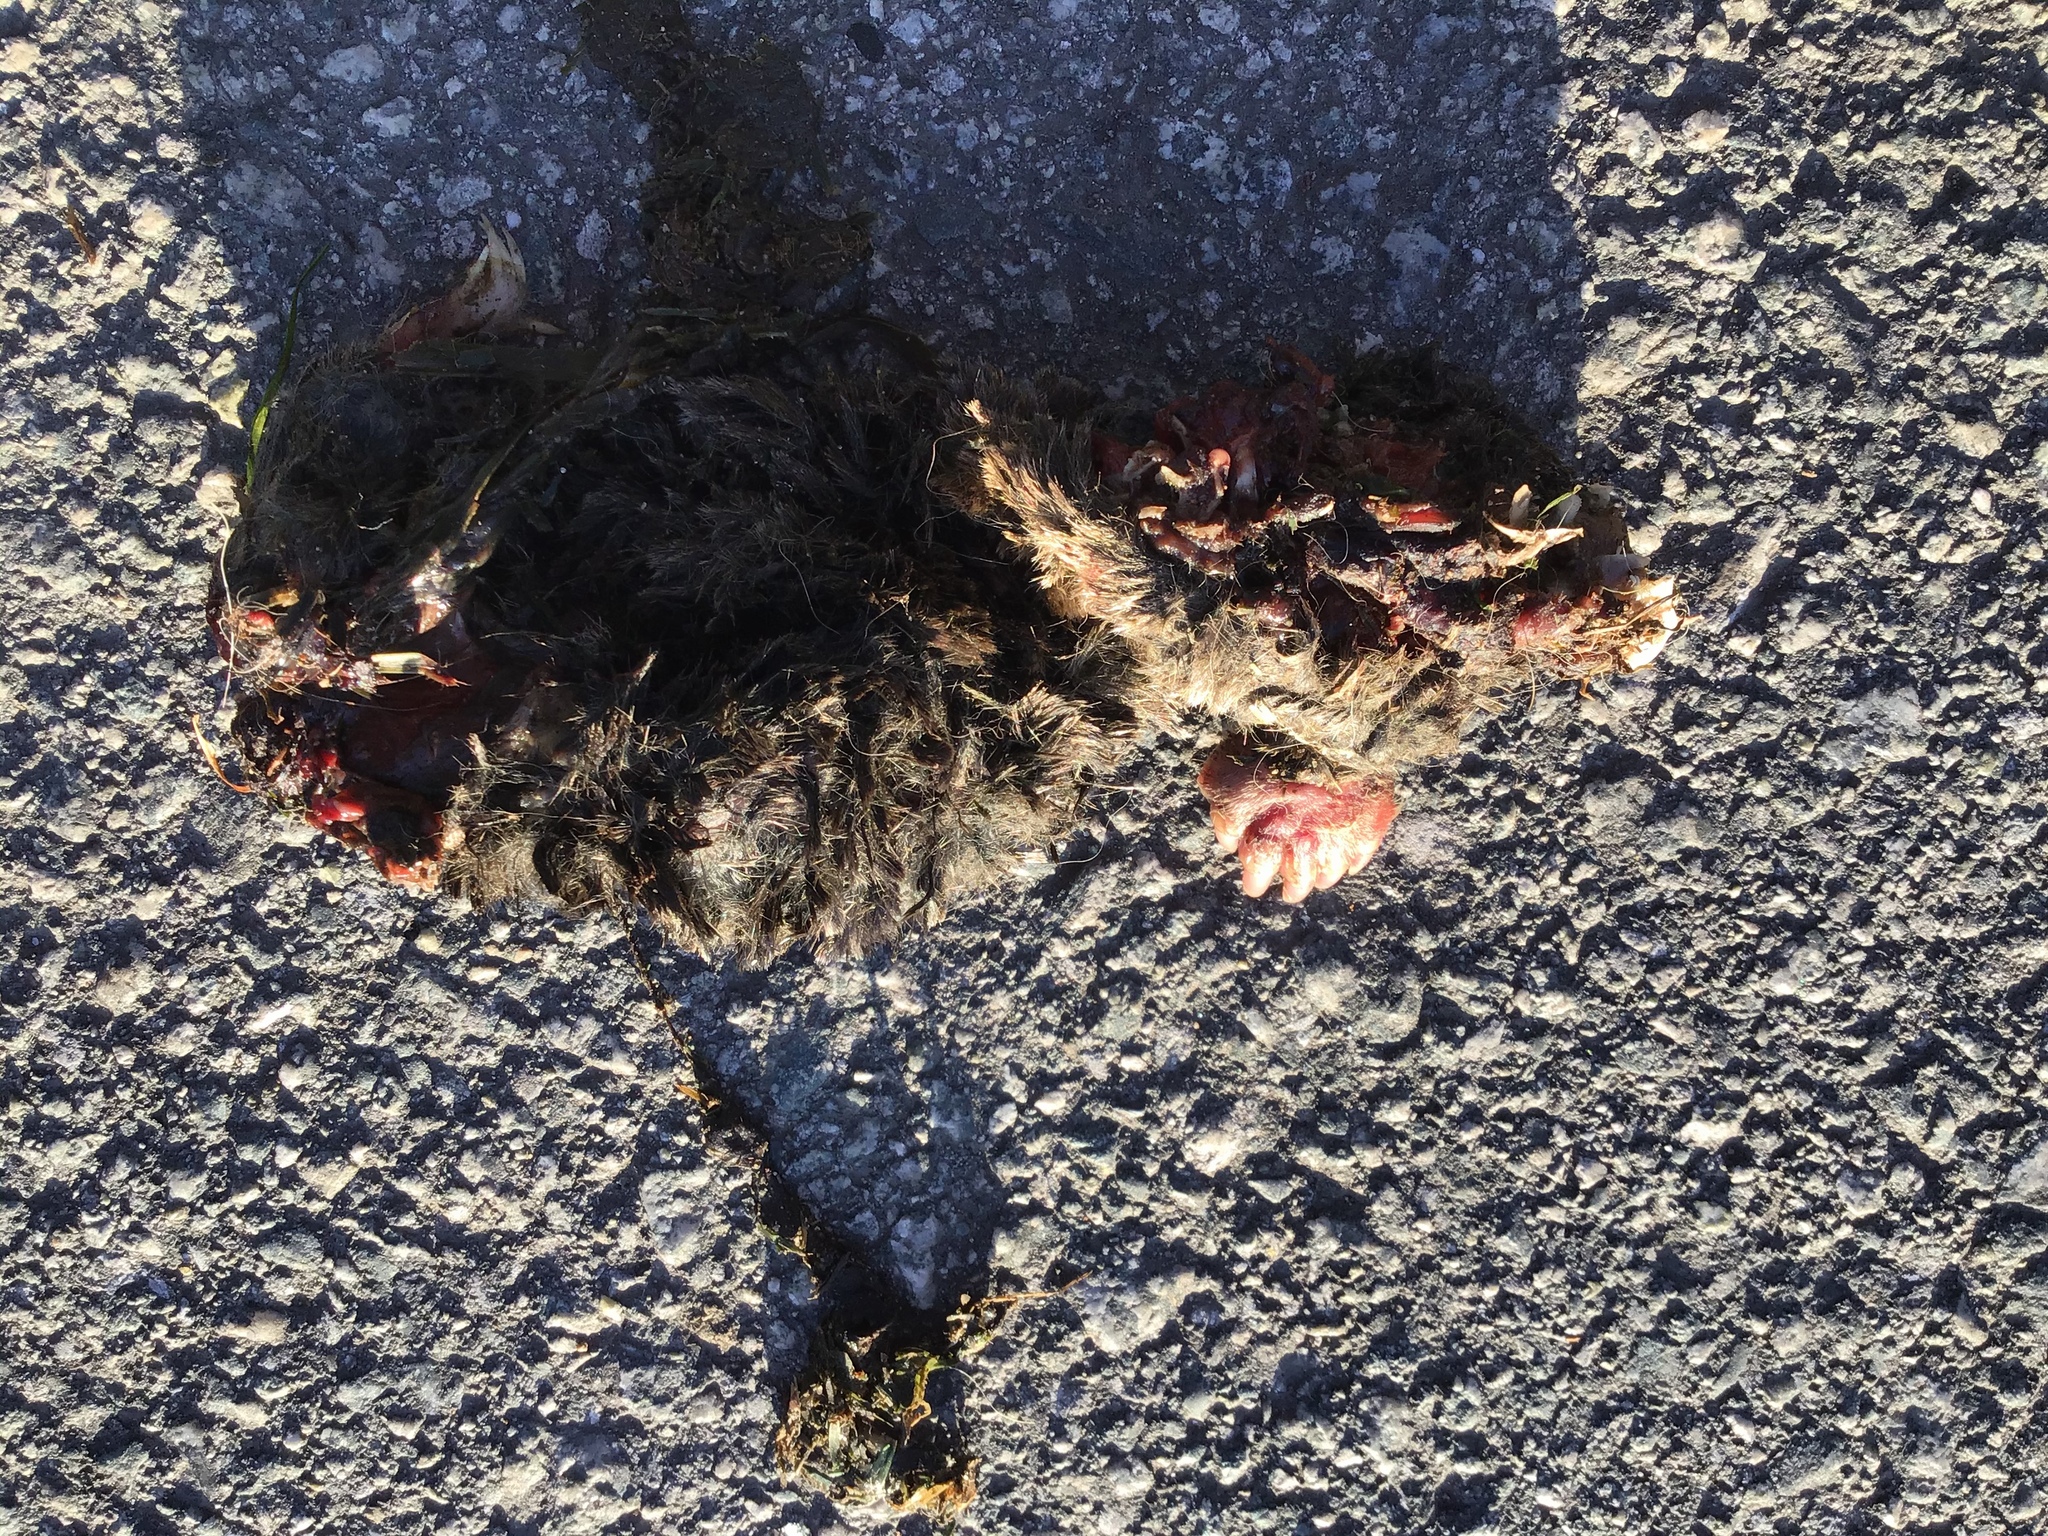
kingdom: Animalia
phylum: Chordata
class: Mammalia
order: Soricomorpha
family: Talpidae
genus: Scapanus
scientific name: Scapanus latimanus
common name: Broad-footed mole
